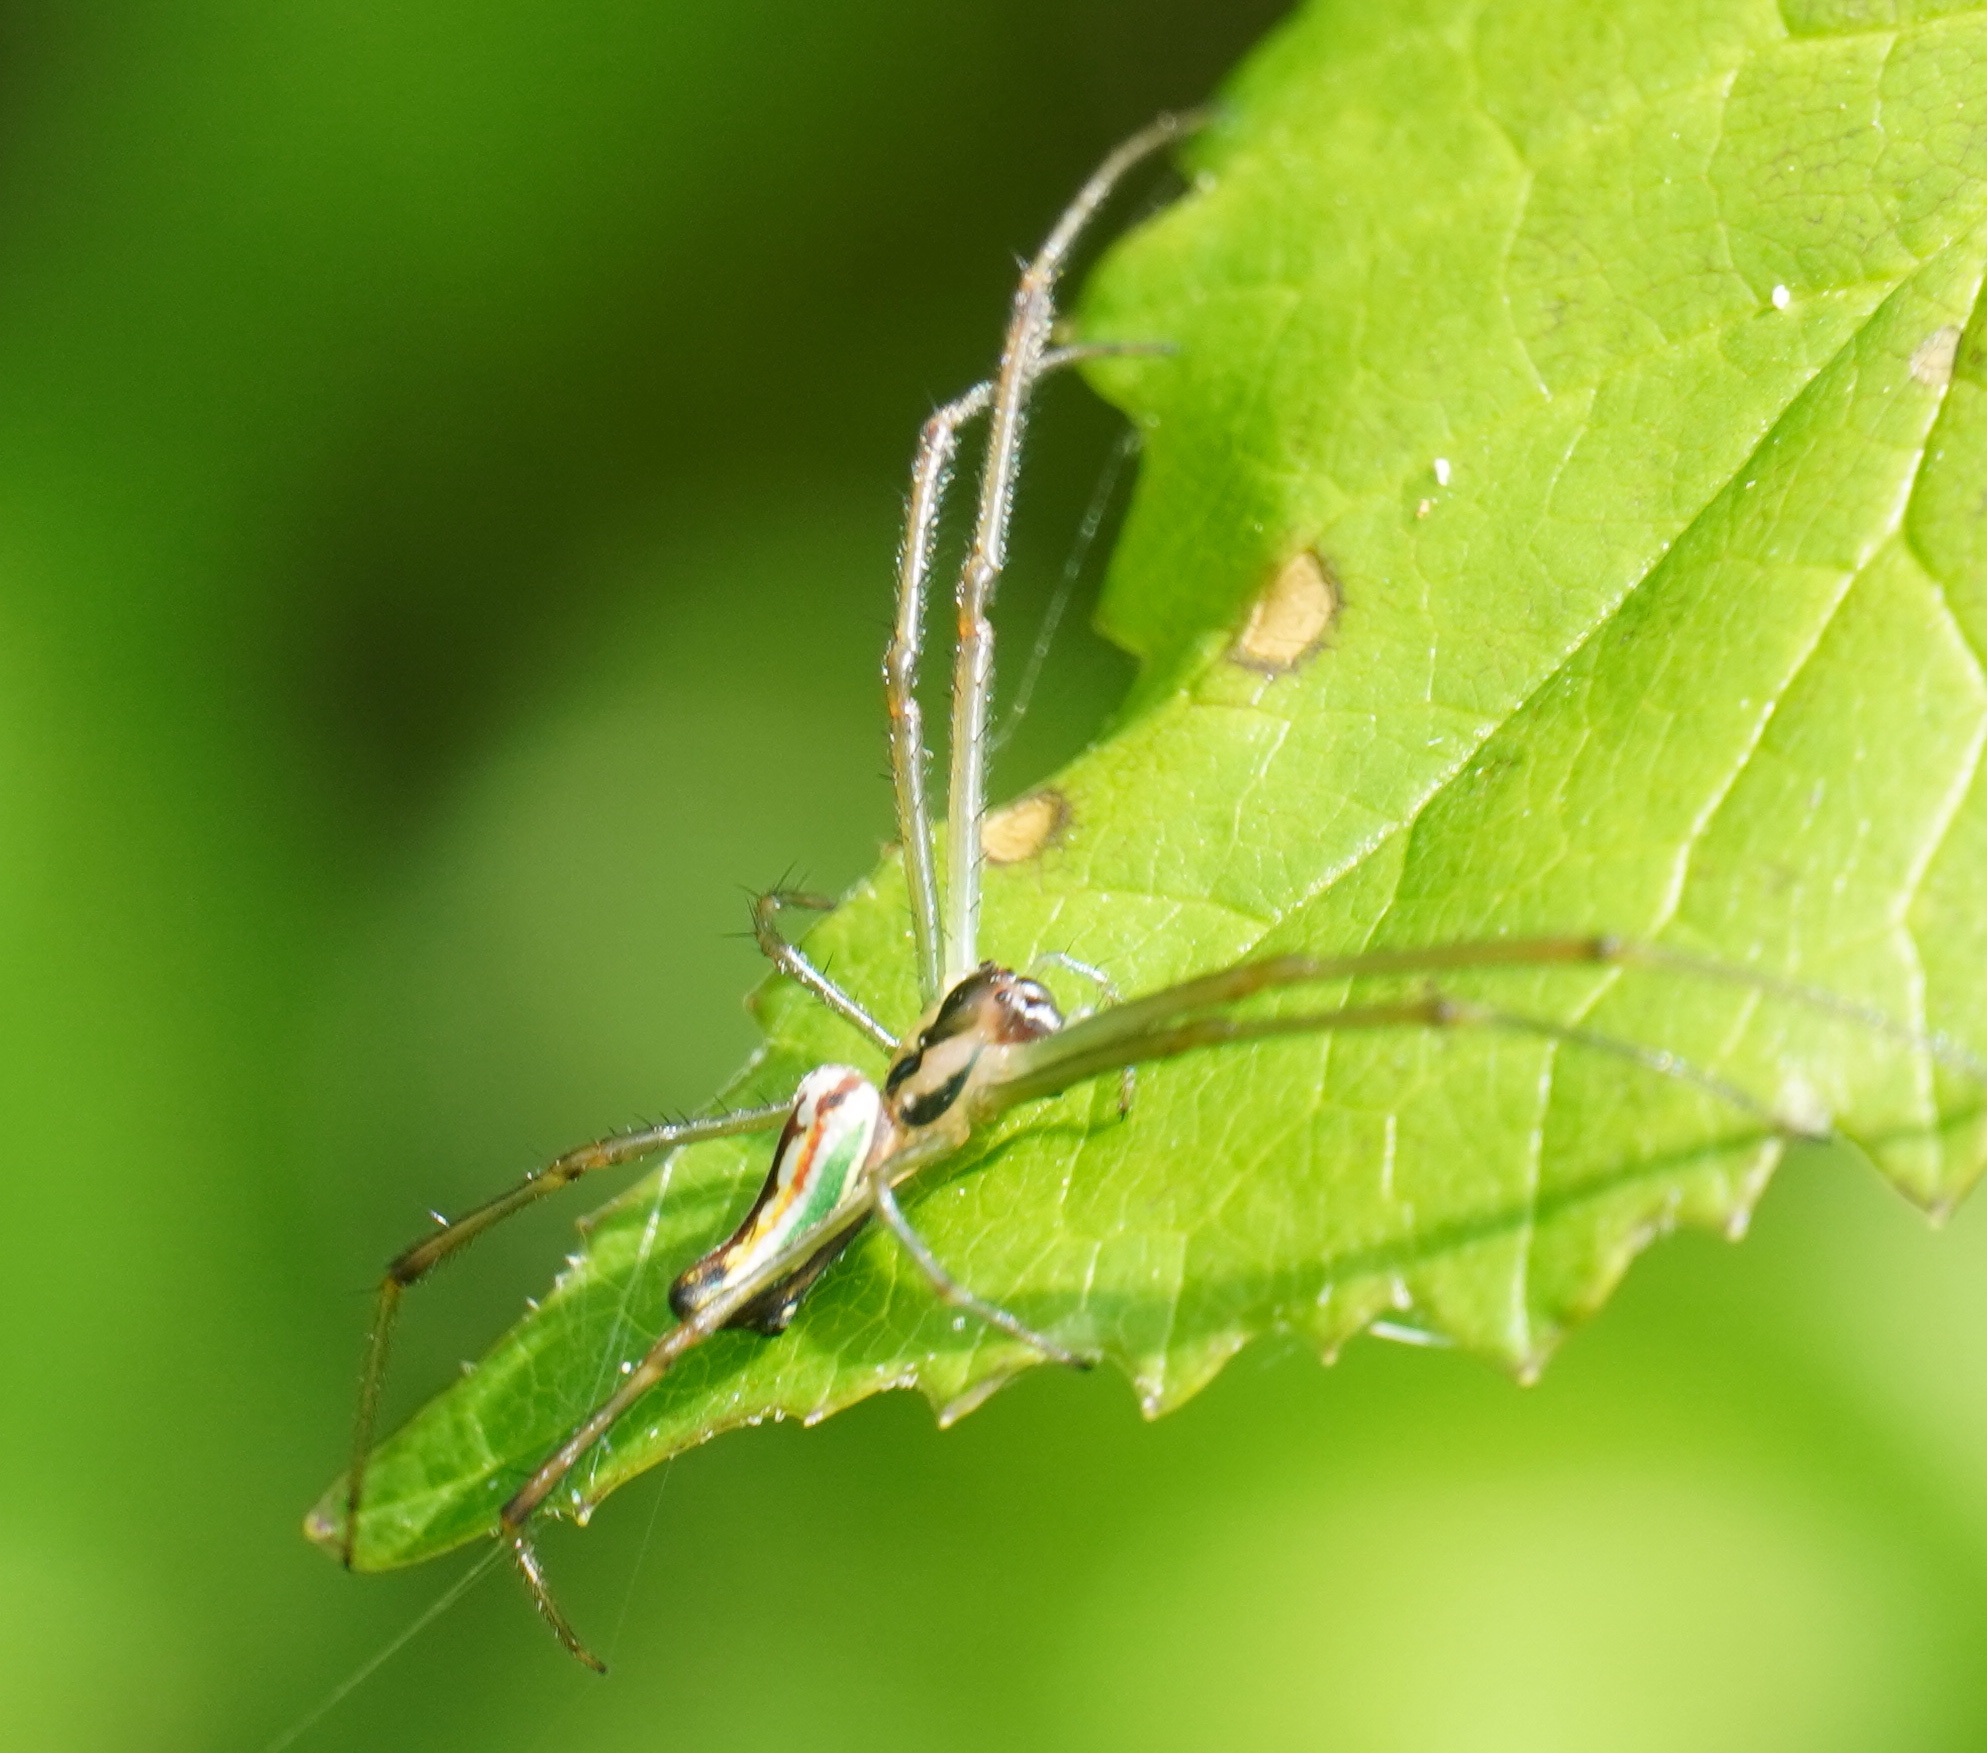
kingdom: Animalia
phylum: Arthropoda
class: Arachnida
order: Araneae
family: Tetragnathidae
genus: Leucauge
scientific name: Leucauge levanderi
